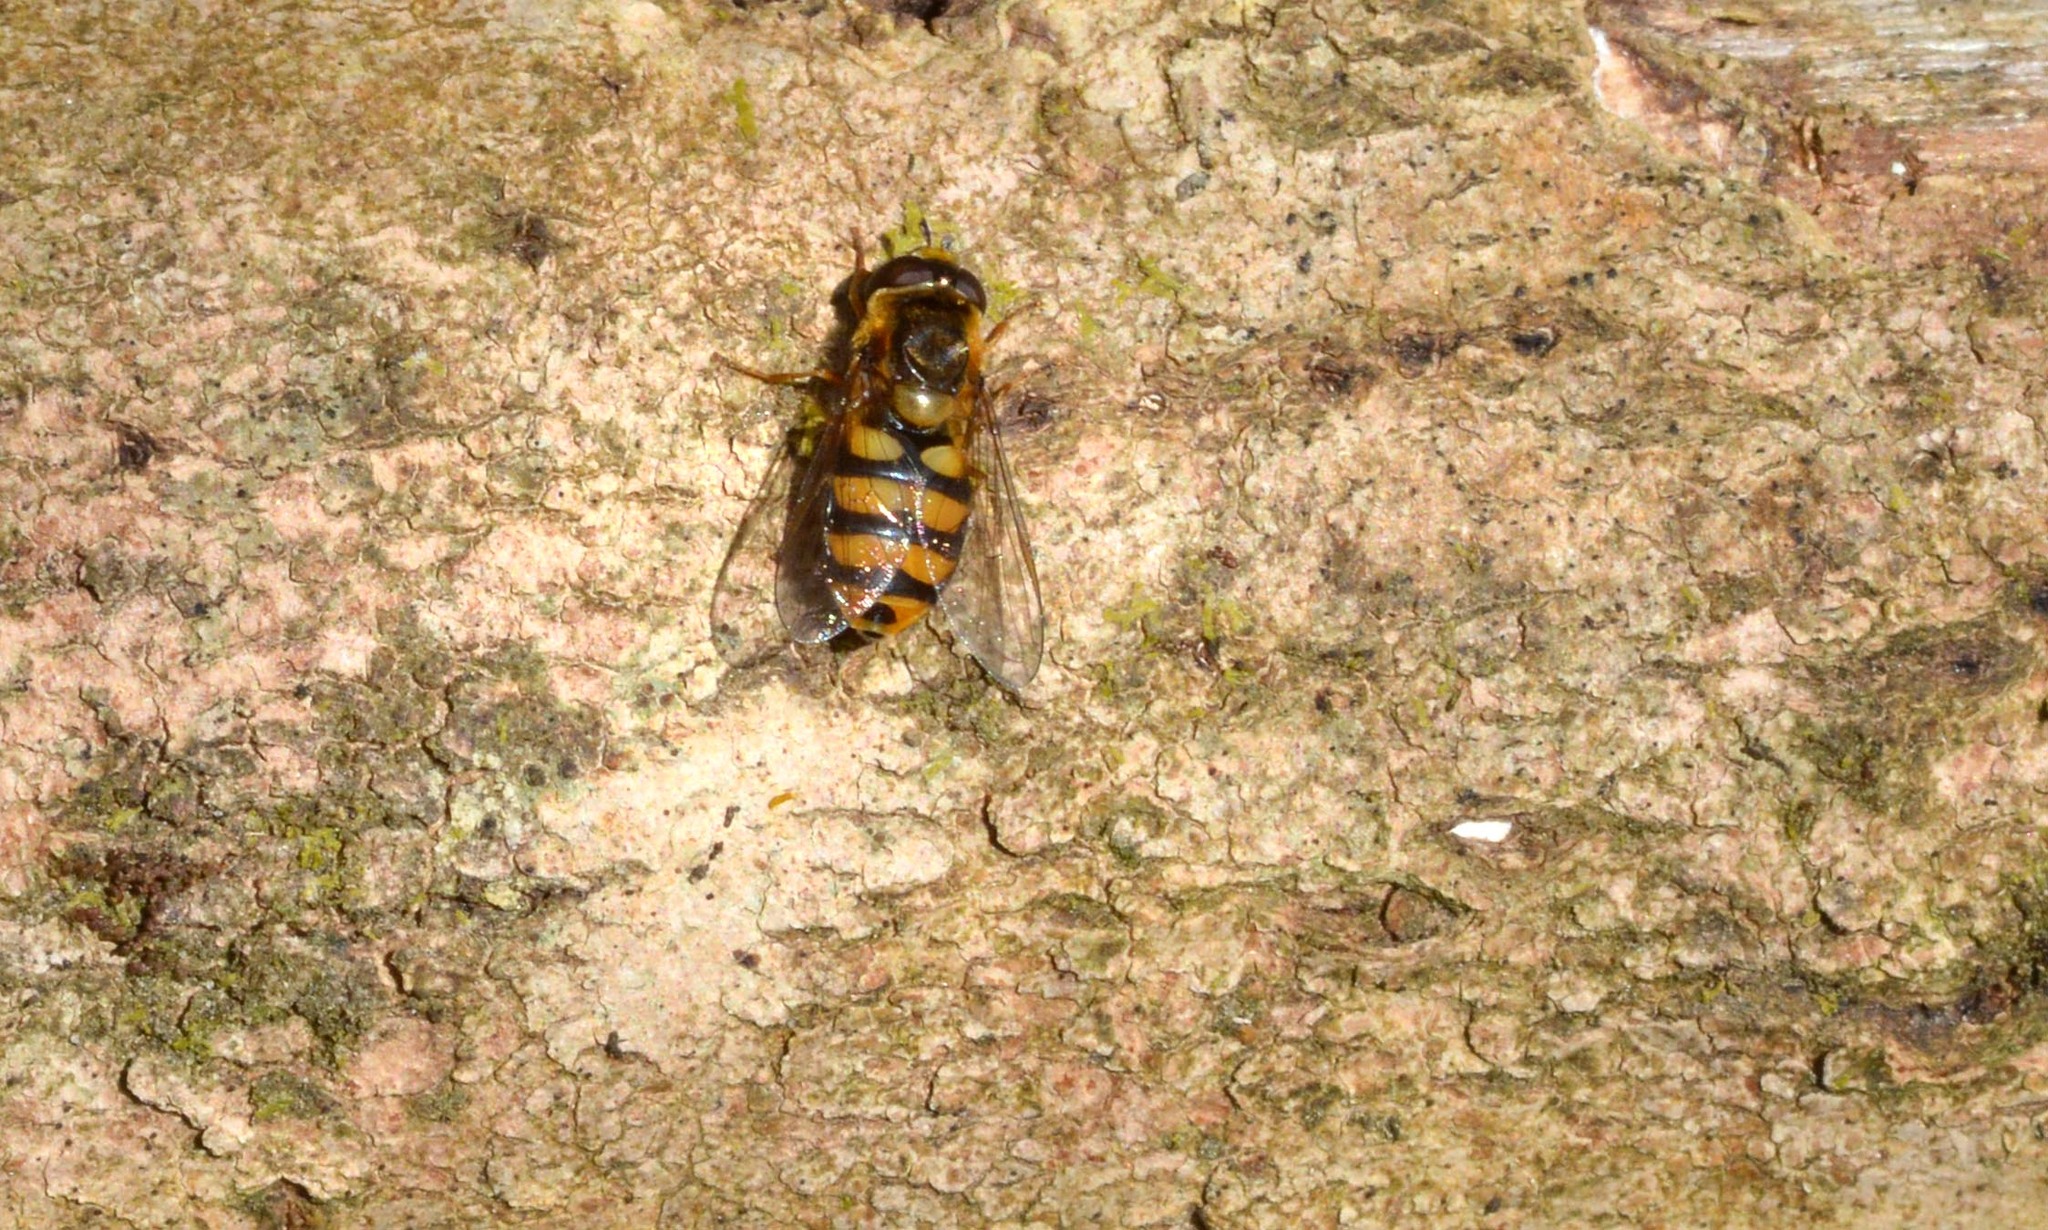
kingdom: Animalia
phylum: Arthropoda
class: Insecta
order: Diptera
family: Syrphidae
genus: Eupeodes
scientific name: Eupeodes latifasciatus
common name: Variable aphideater
